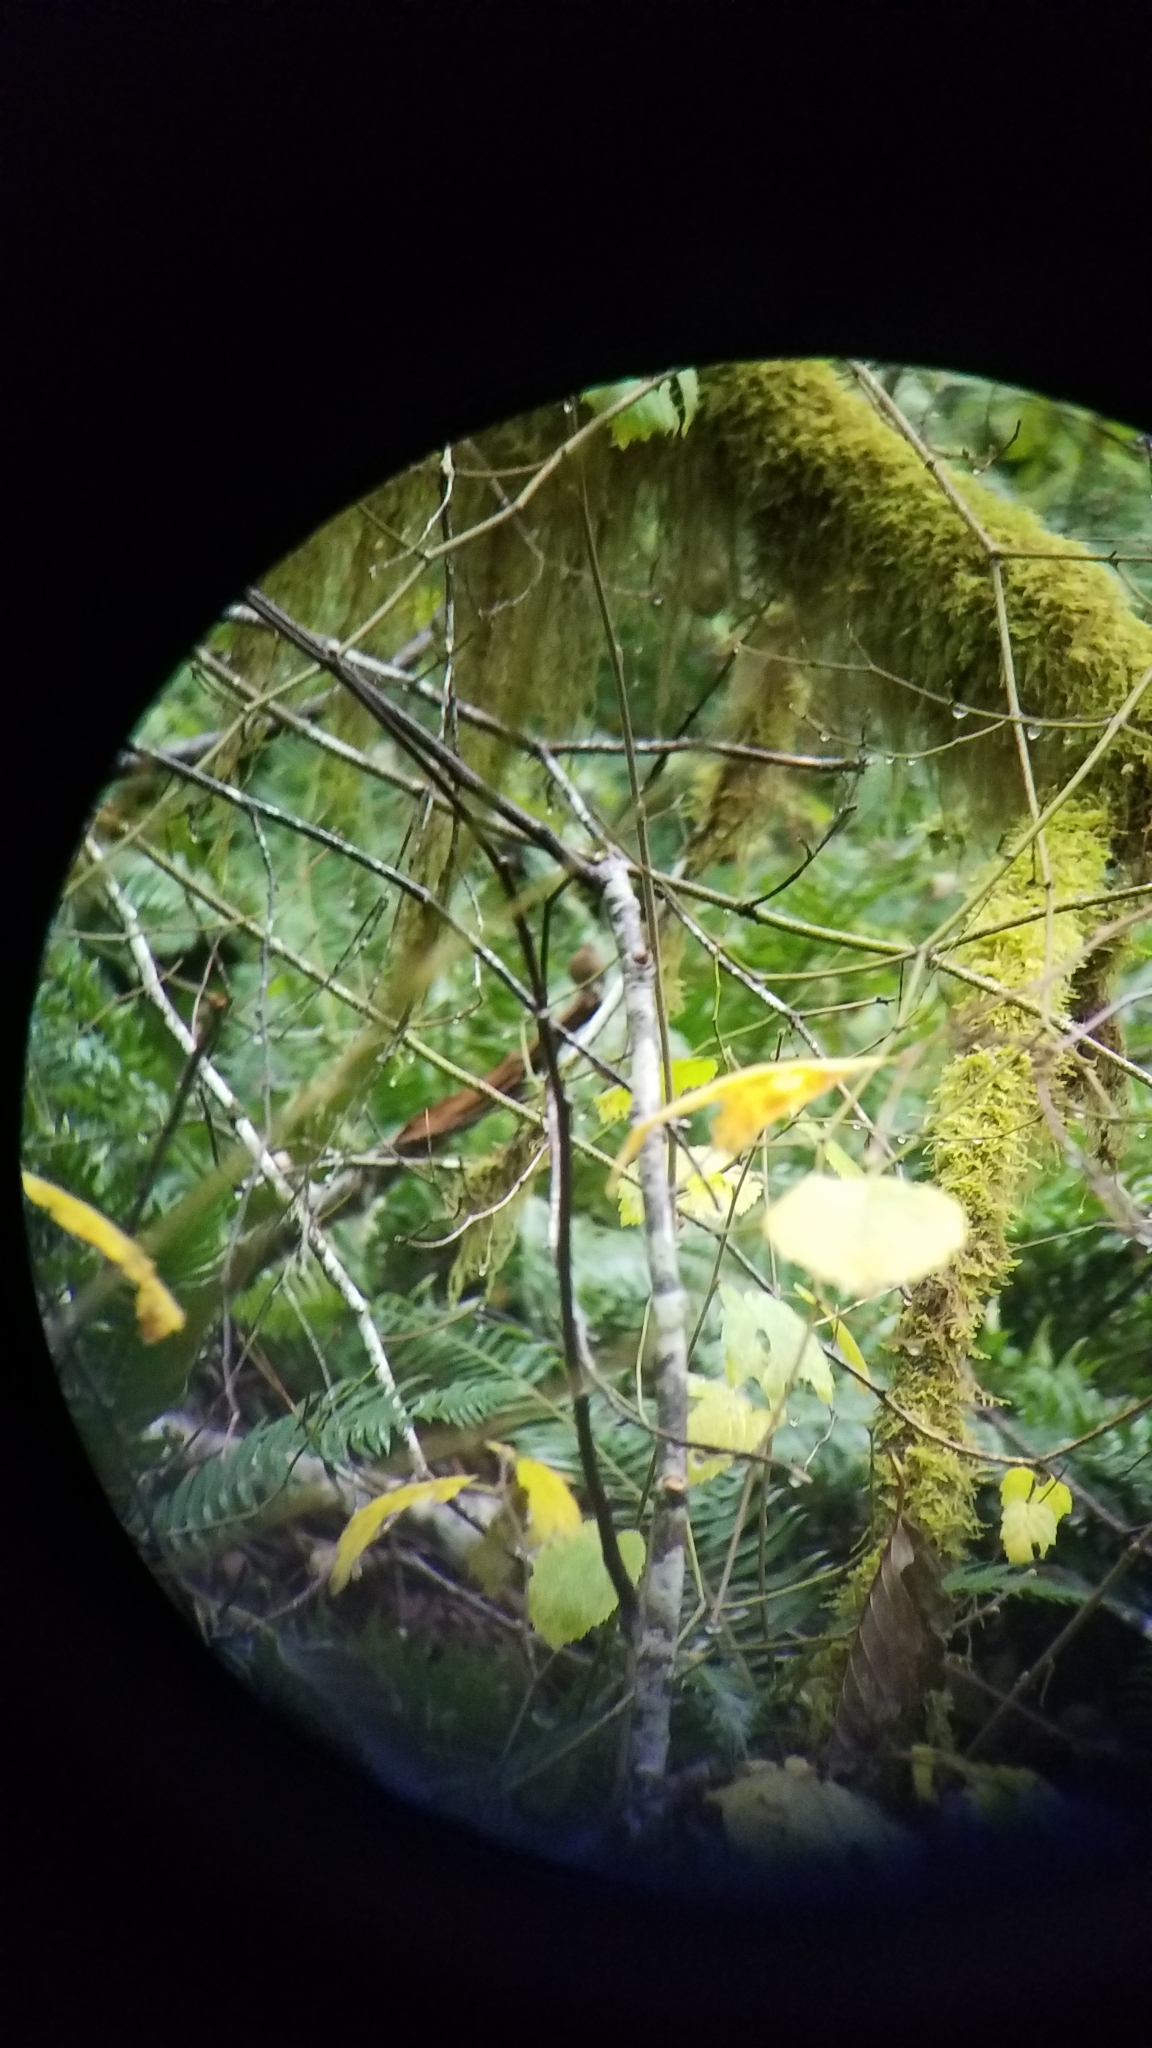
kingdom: Animalia
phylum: Chordata
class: Aves
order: Passeriformes
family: Troglodytidae
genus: Troglodytes
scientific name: Troglodytes pacificus
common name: Pacific wren
